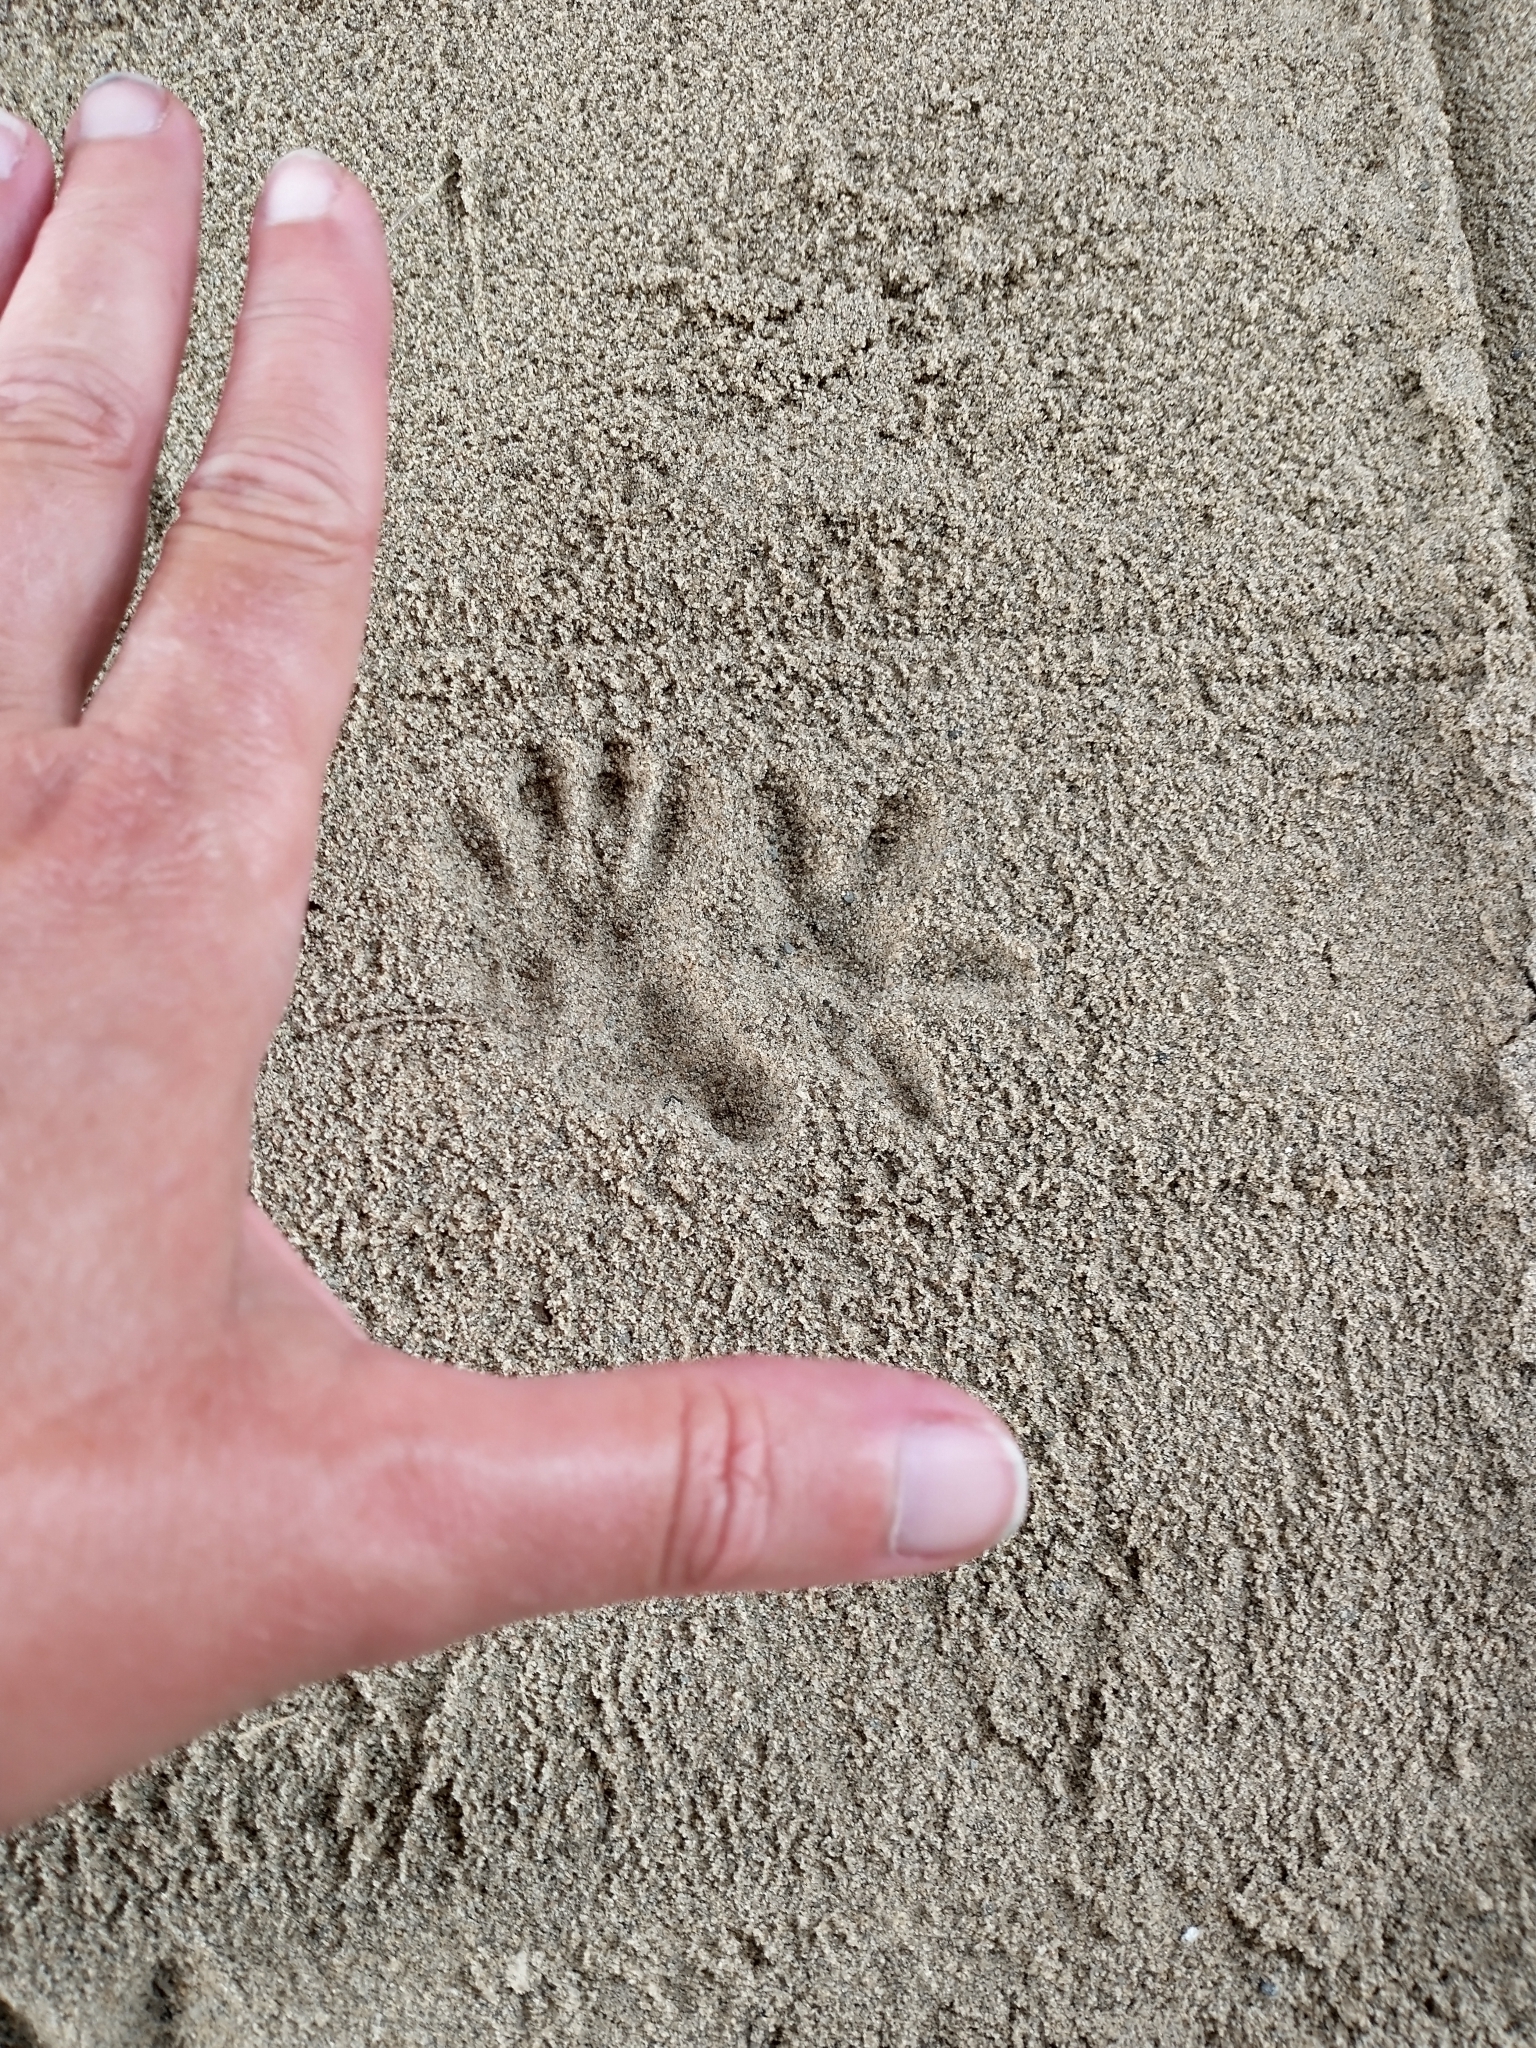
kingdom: Animalia
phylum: Chordata
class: Mammalia
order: Carnivora
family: Procyonidae
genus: Procyon
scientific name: Procyon lotor
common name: Raccoon
